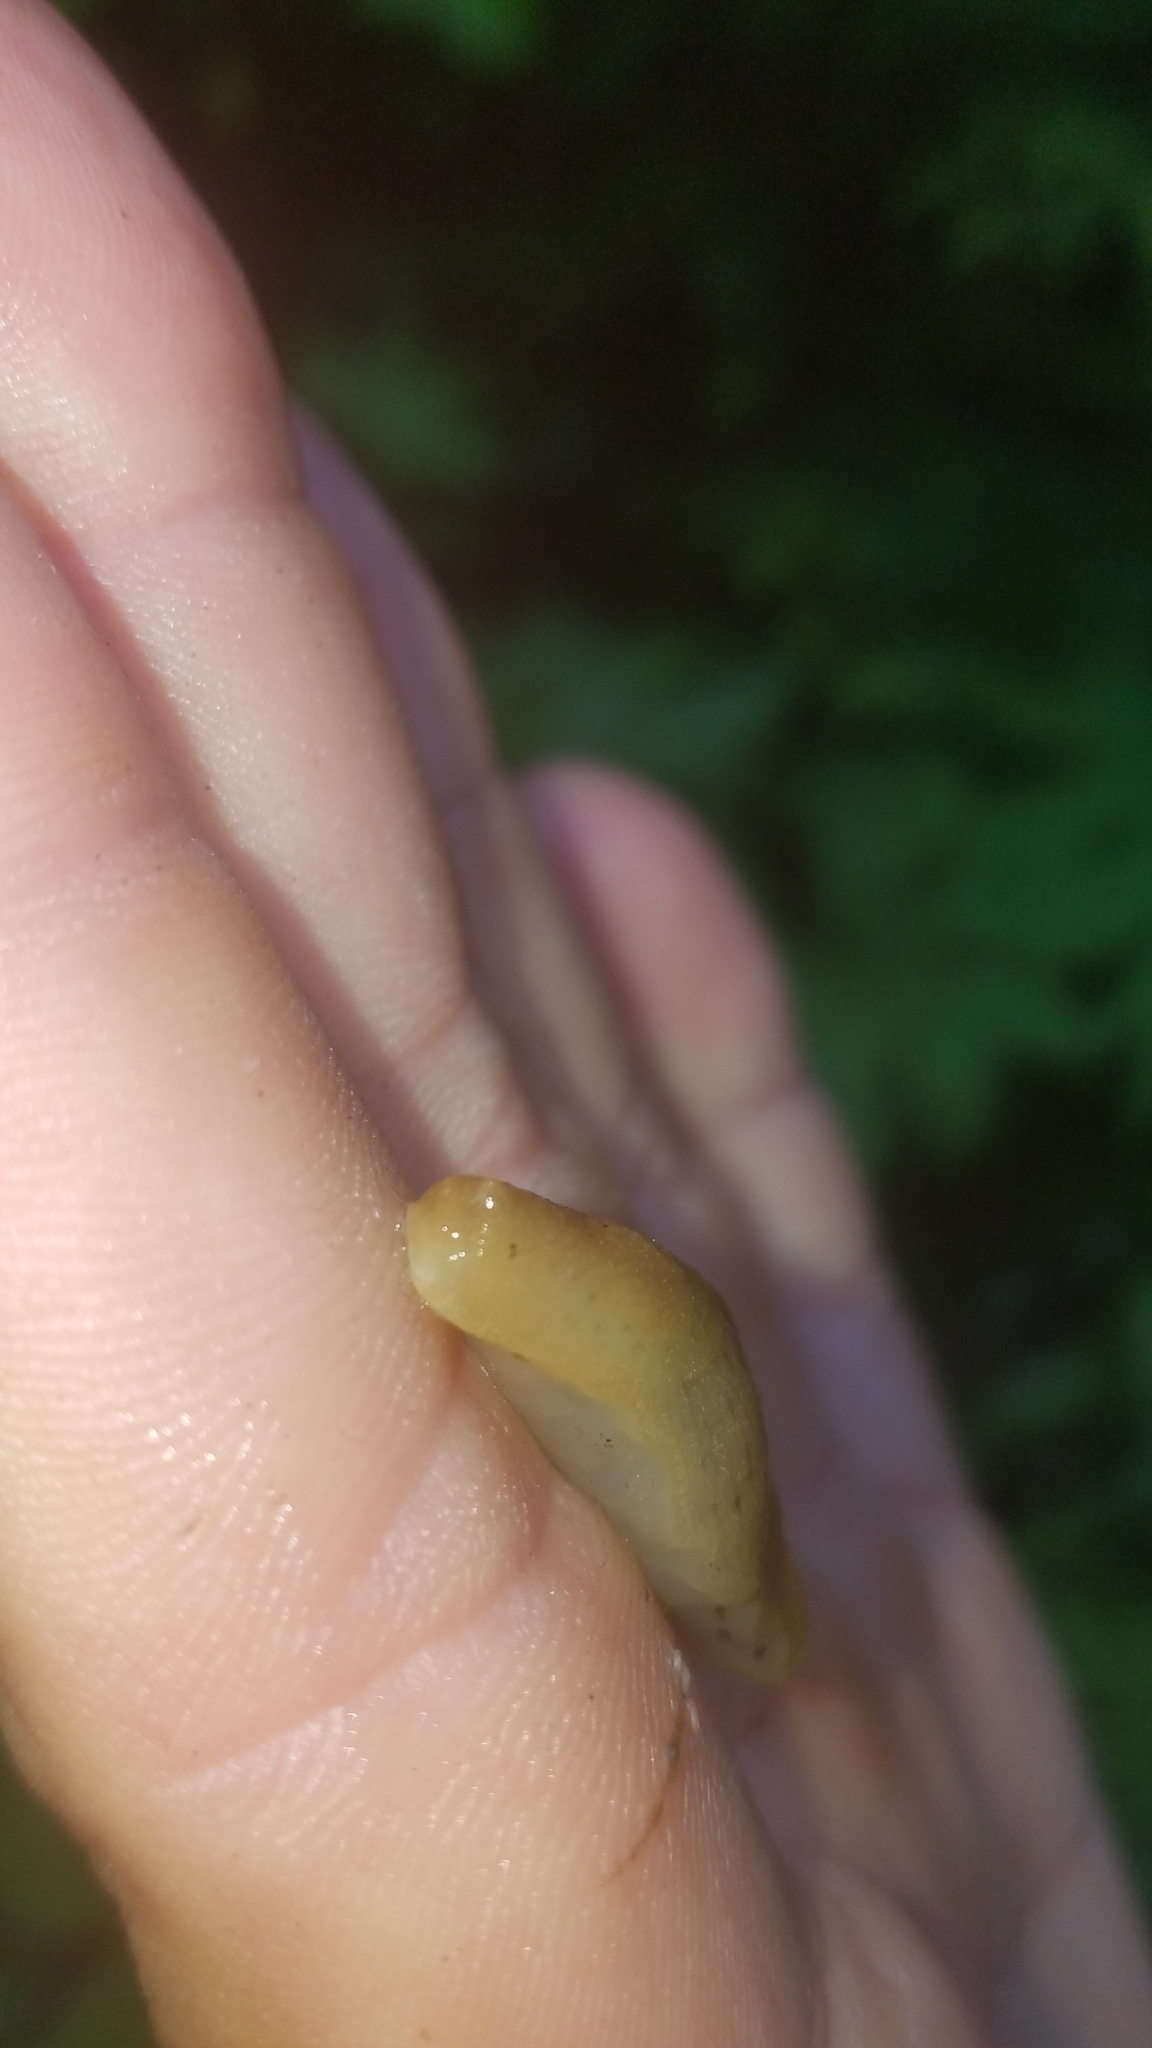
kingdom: Animalia
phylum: Mollusca
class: Gastropoda
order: Stylommatophora
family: Ariolimacidae
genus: Ariolimax
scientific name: Ariolimax columbianus
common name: Pacific banana slug
